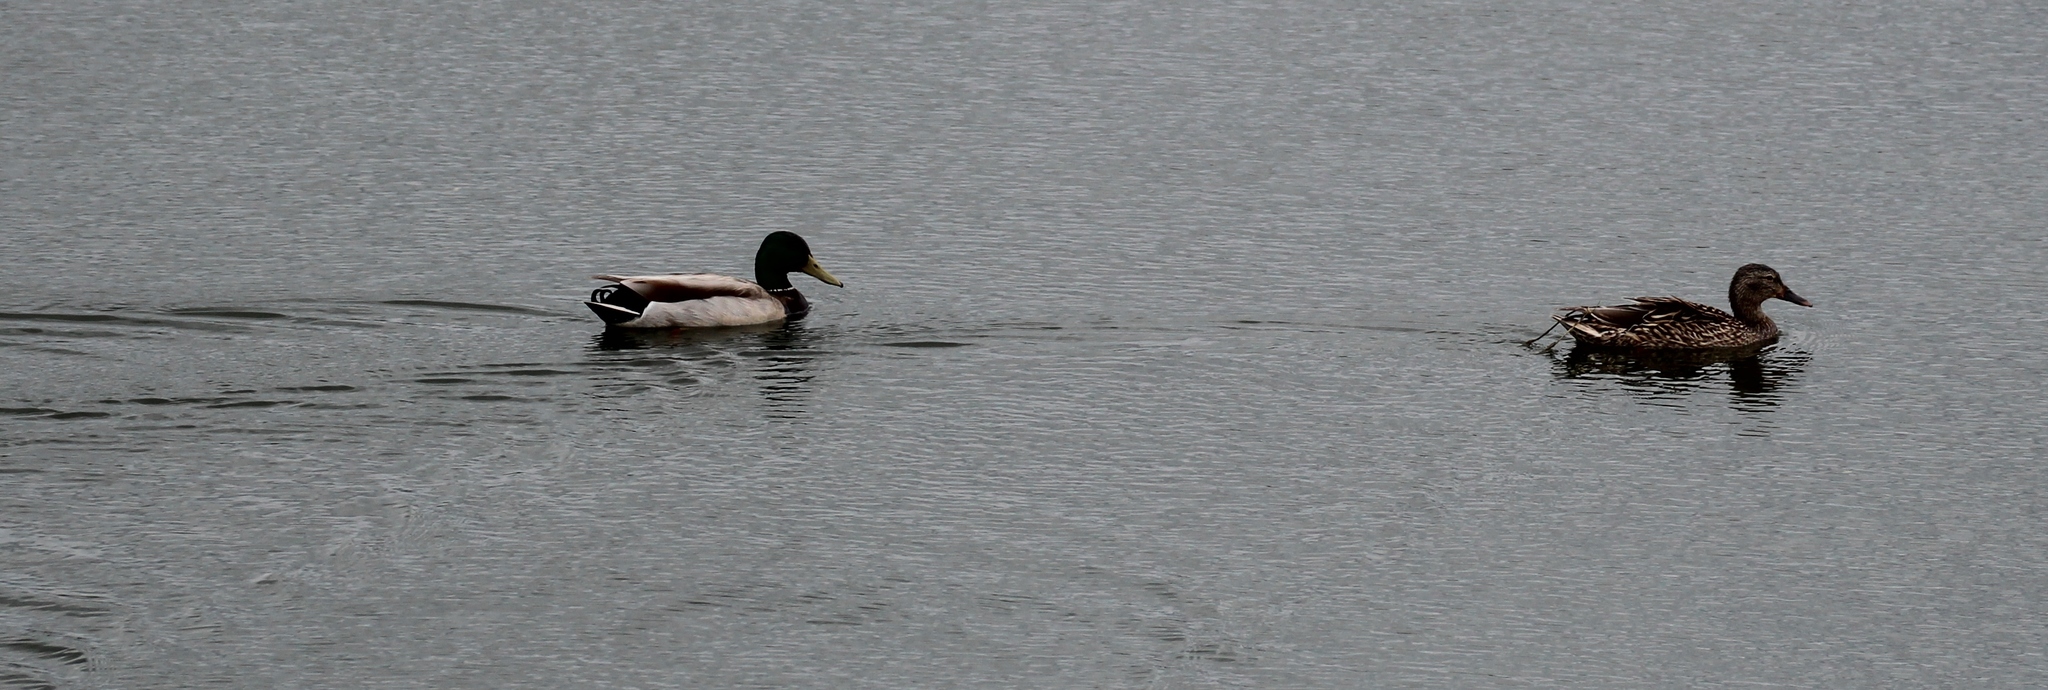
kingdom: Animalia
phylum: Chordata
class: Aves
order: Anseriformes
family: Anatidae
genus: Anas
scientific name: Anas platyrhynchos
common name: Mallard
